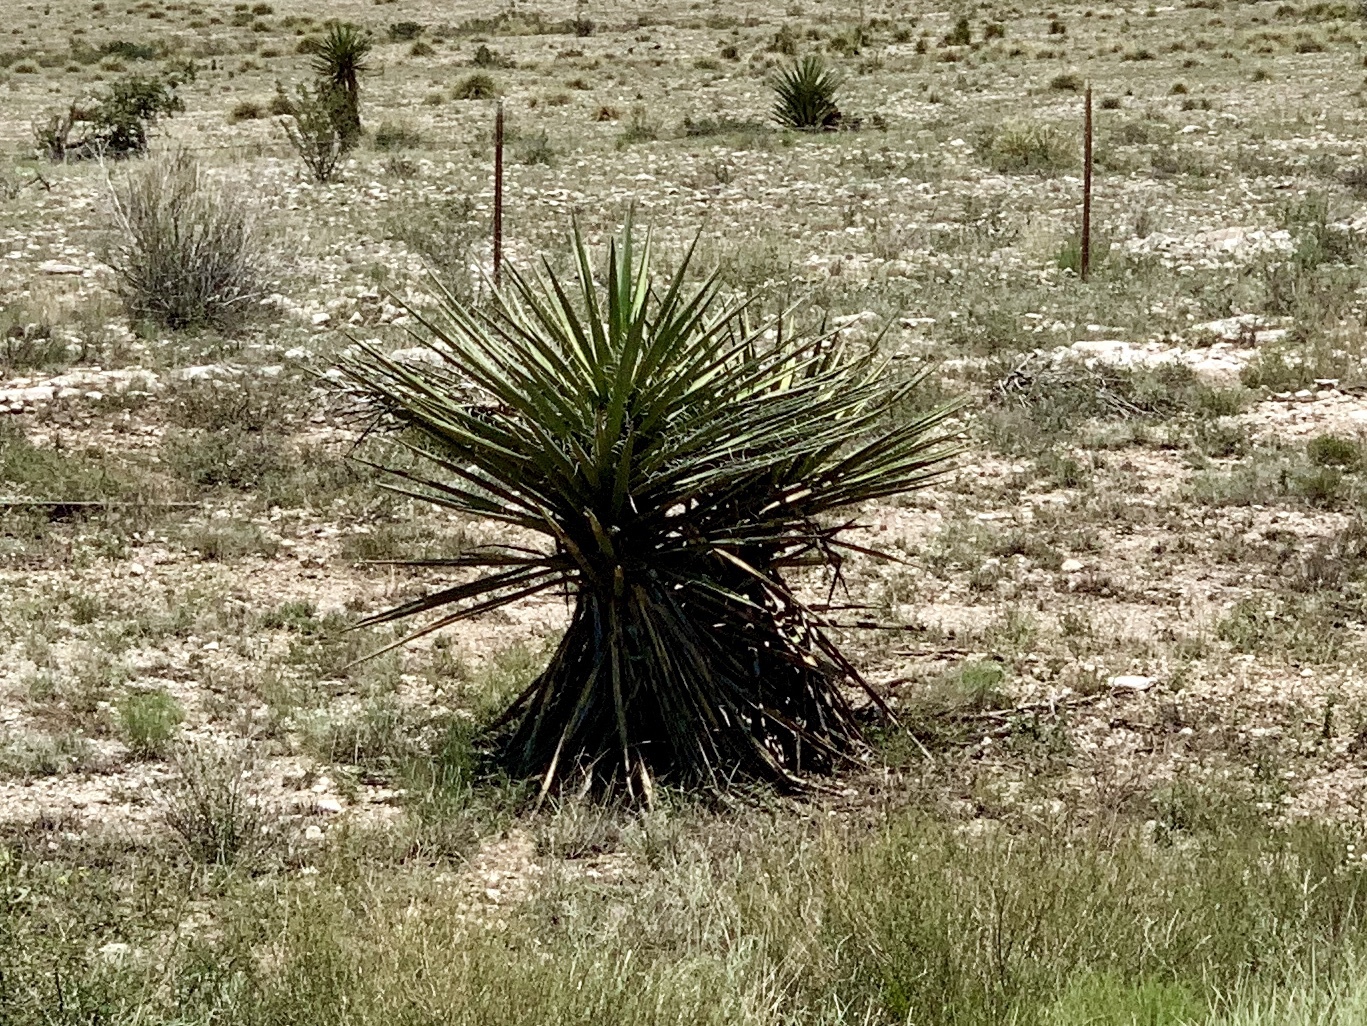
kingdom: Plantae
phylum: Tracheophyta
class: Liliopsida
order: Asparagales
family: Asparagaceae
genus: Yucca
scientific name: Yucca treculiana
